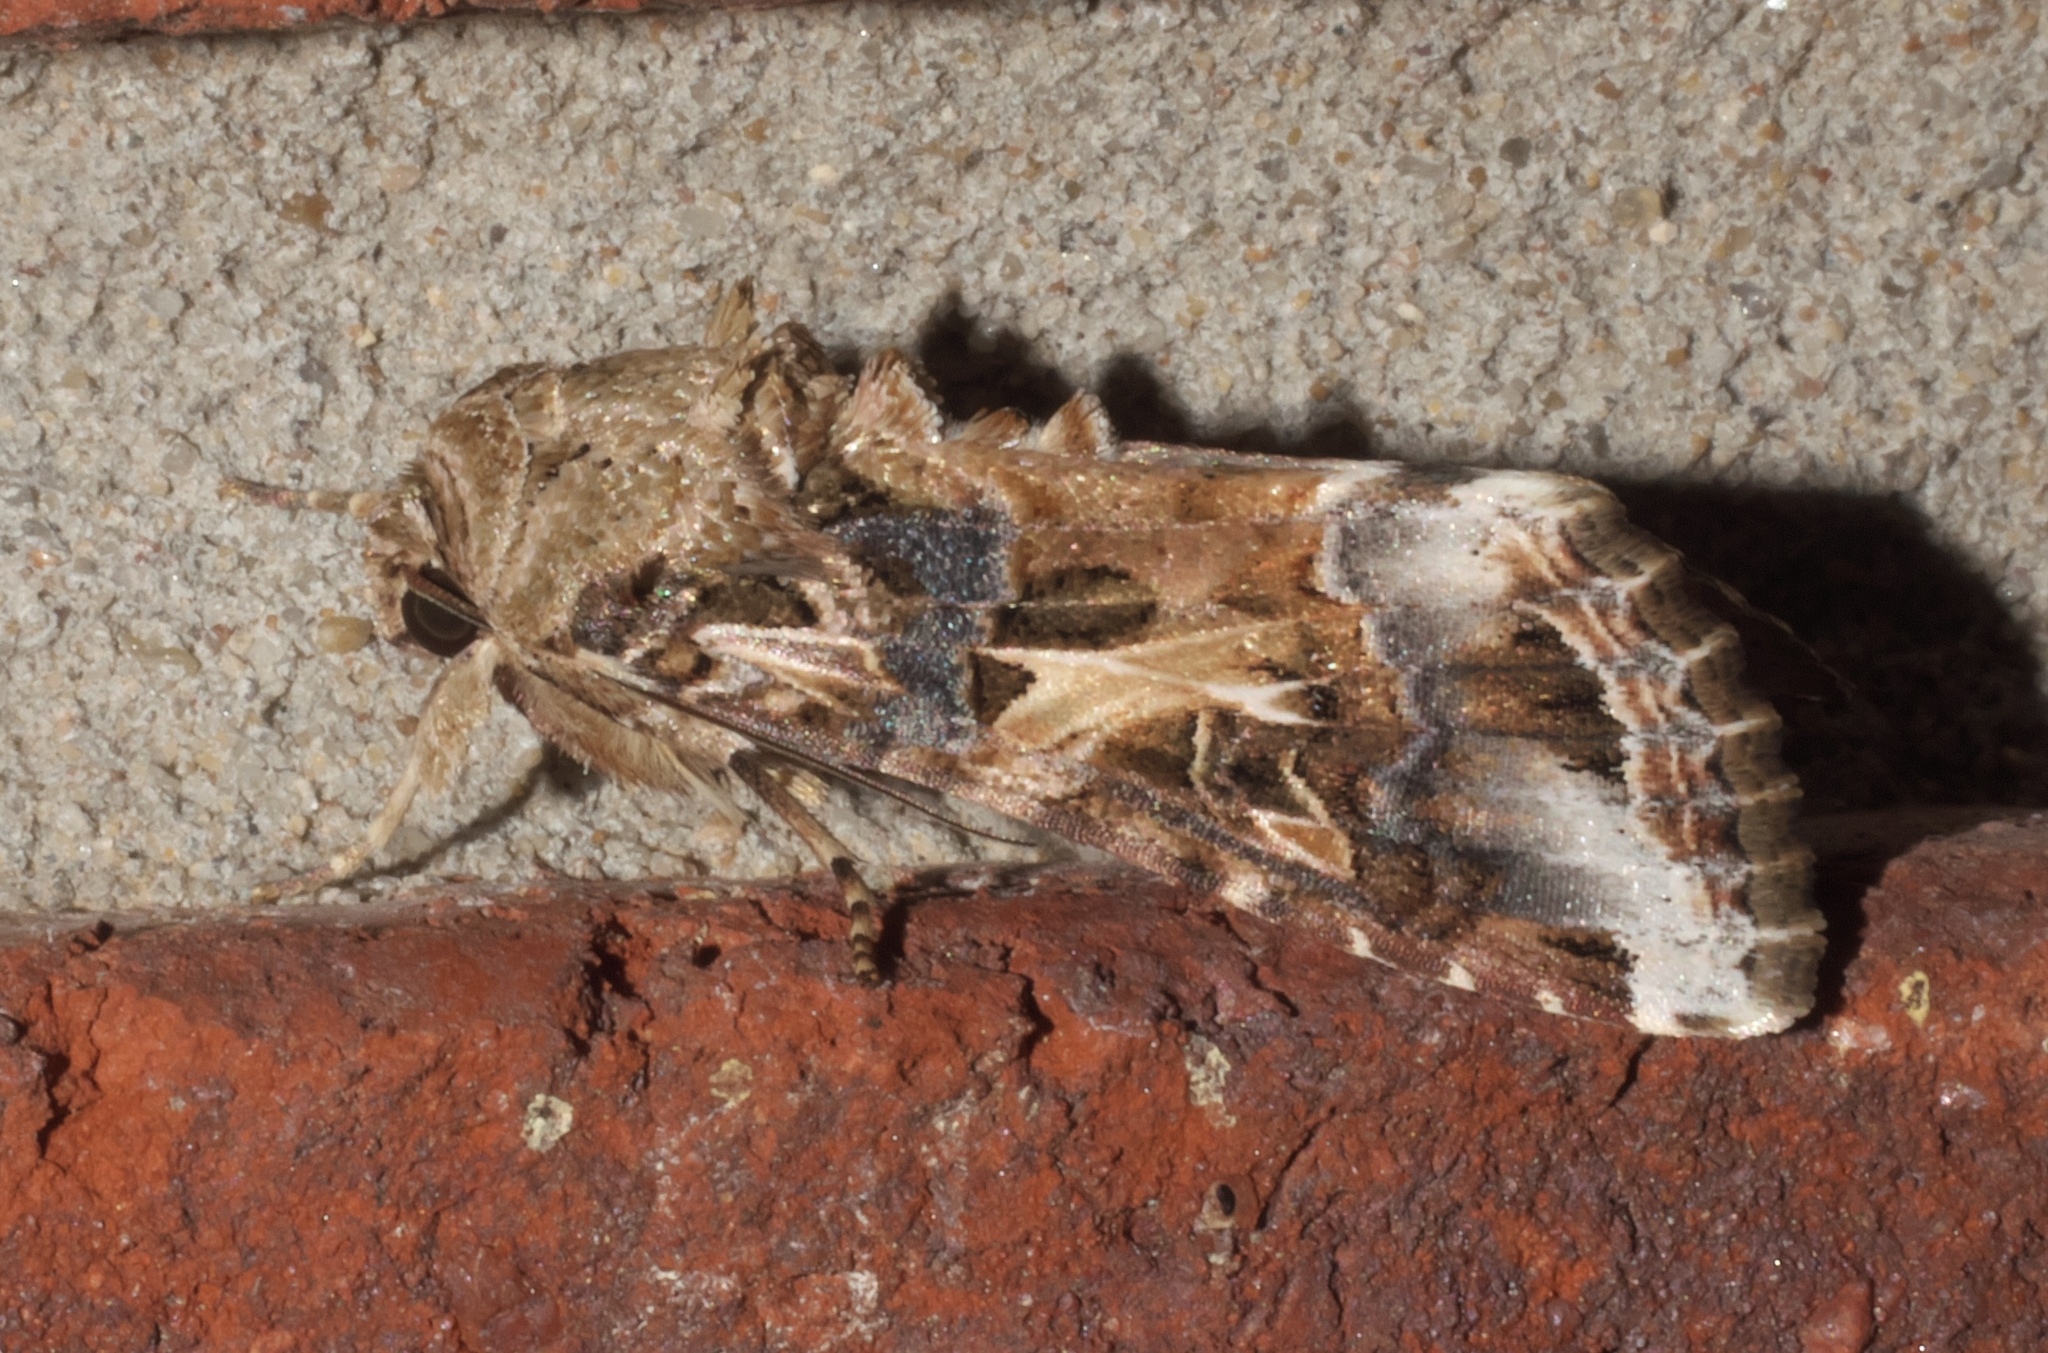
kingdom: Animalia
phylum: Arthropoda
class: Insecta
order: Lepidoptera
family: Noctuidae
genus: Spodoptera
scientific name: Spodoptera ornithogalli
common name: Yellow-striped armyworm
